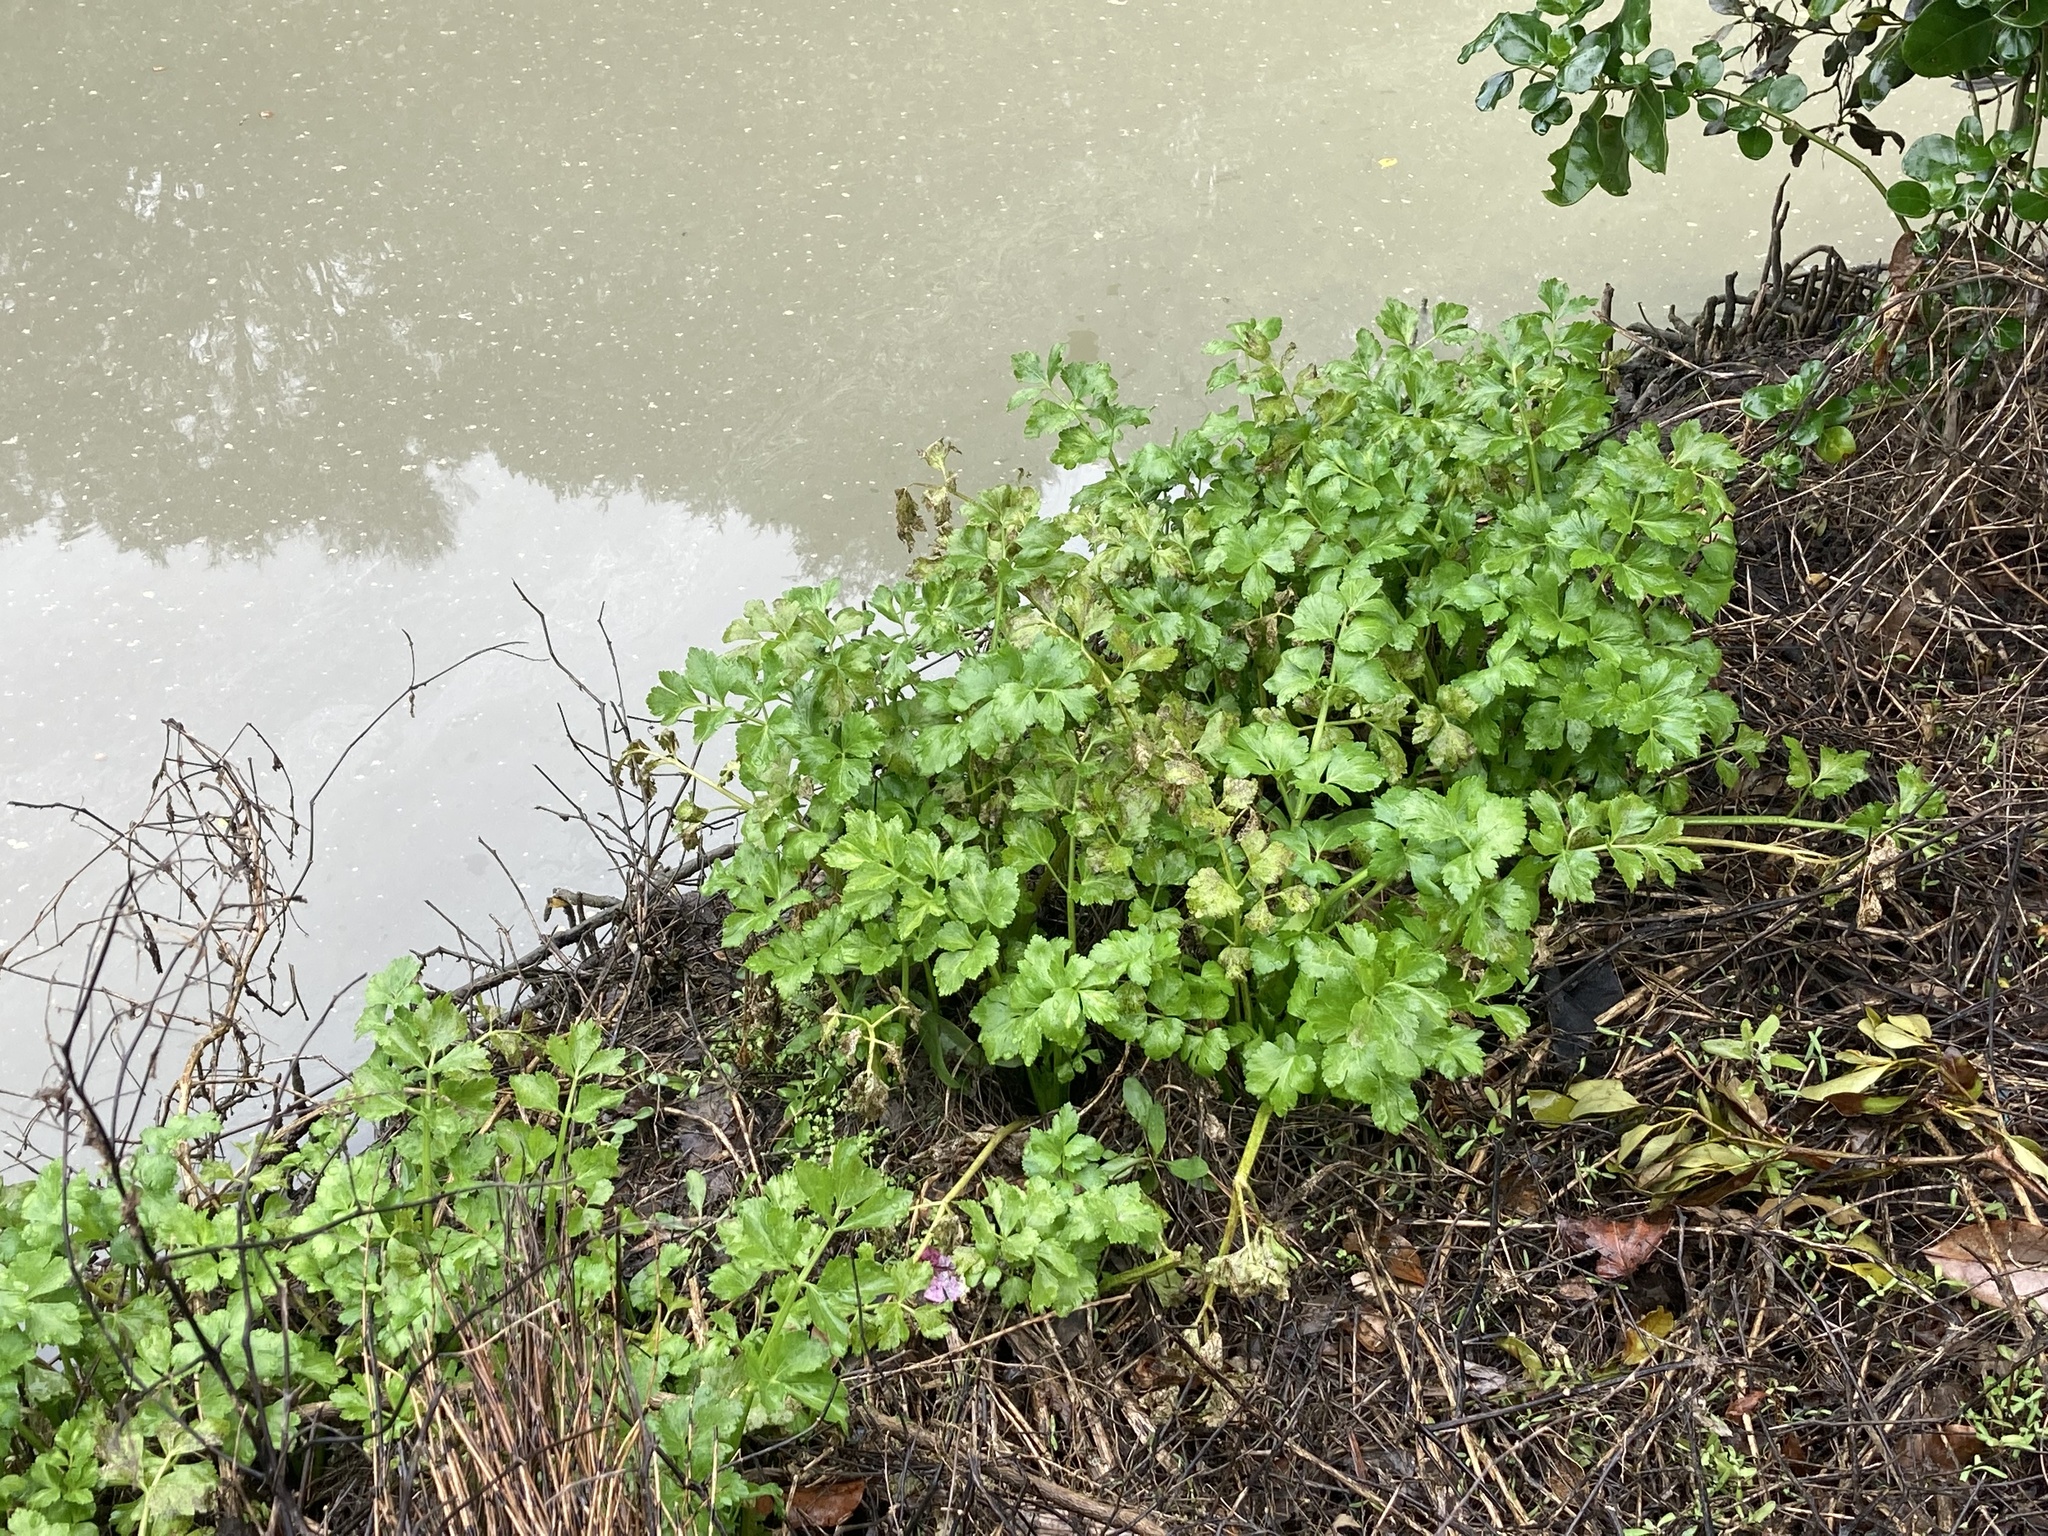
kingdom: Plantae
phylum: Tracheophyta
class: Magnoliopsida
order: Apiales
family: Apiaceae
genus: Apium
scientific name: Apium graveolens
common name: Wild celery
